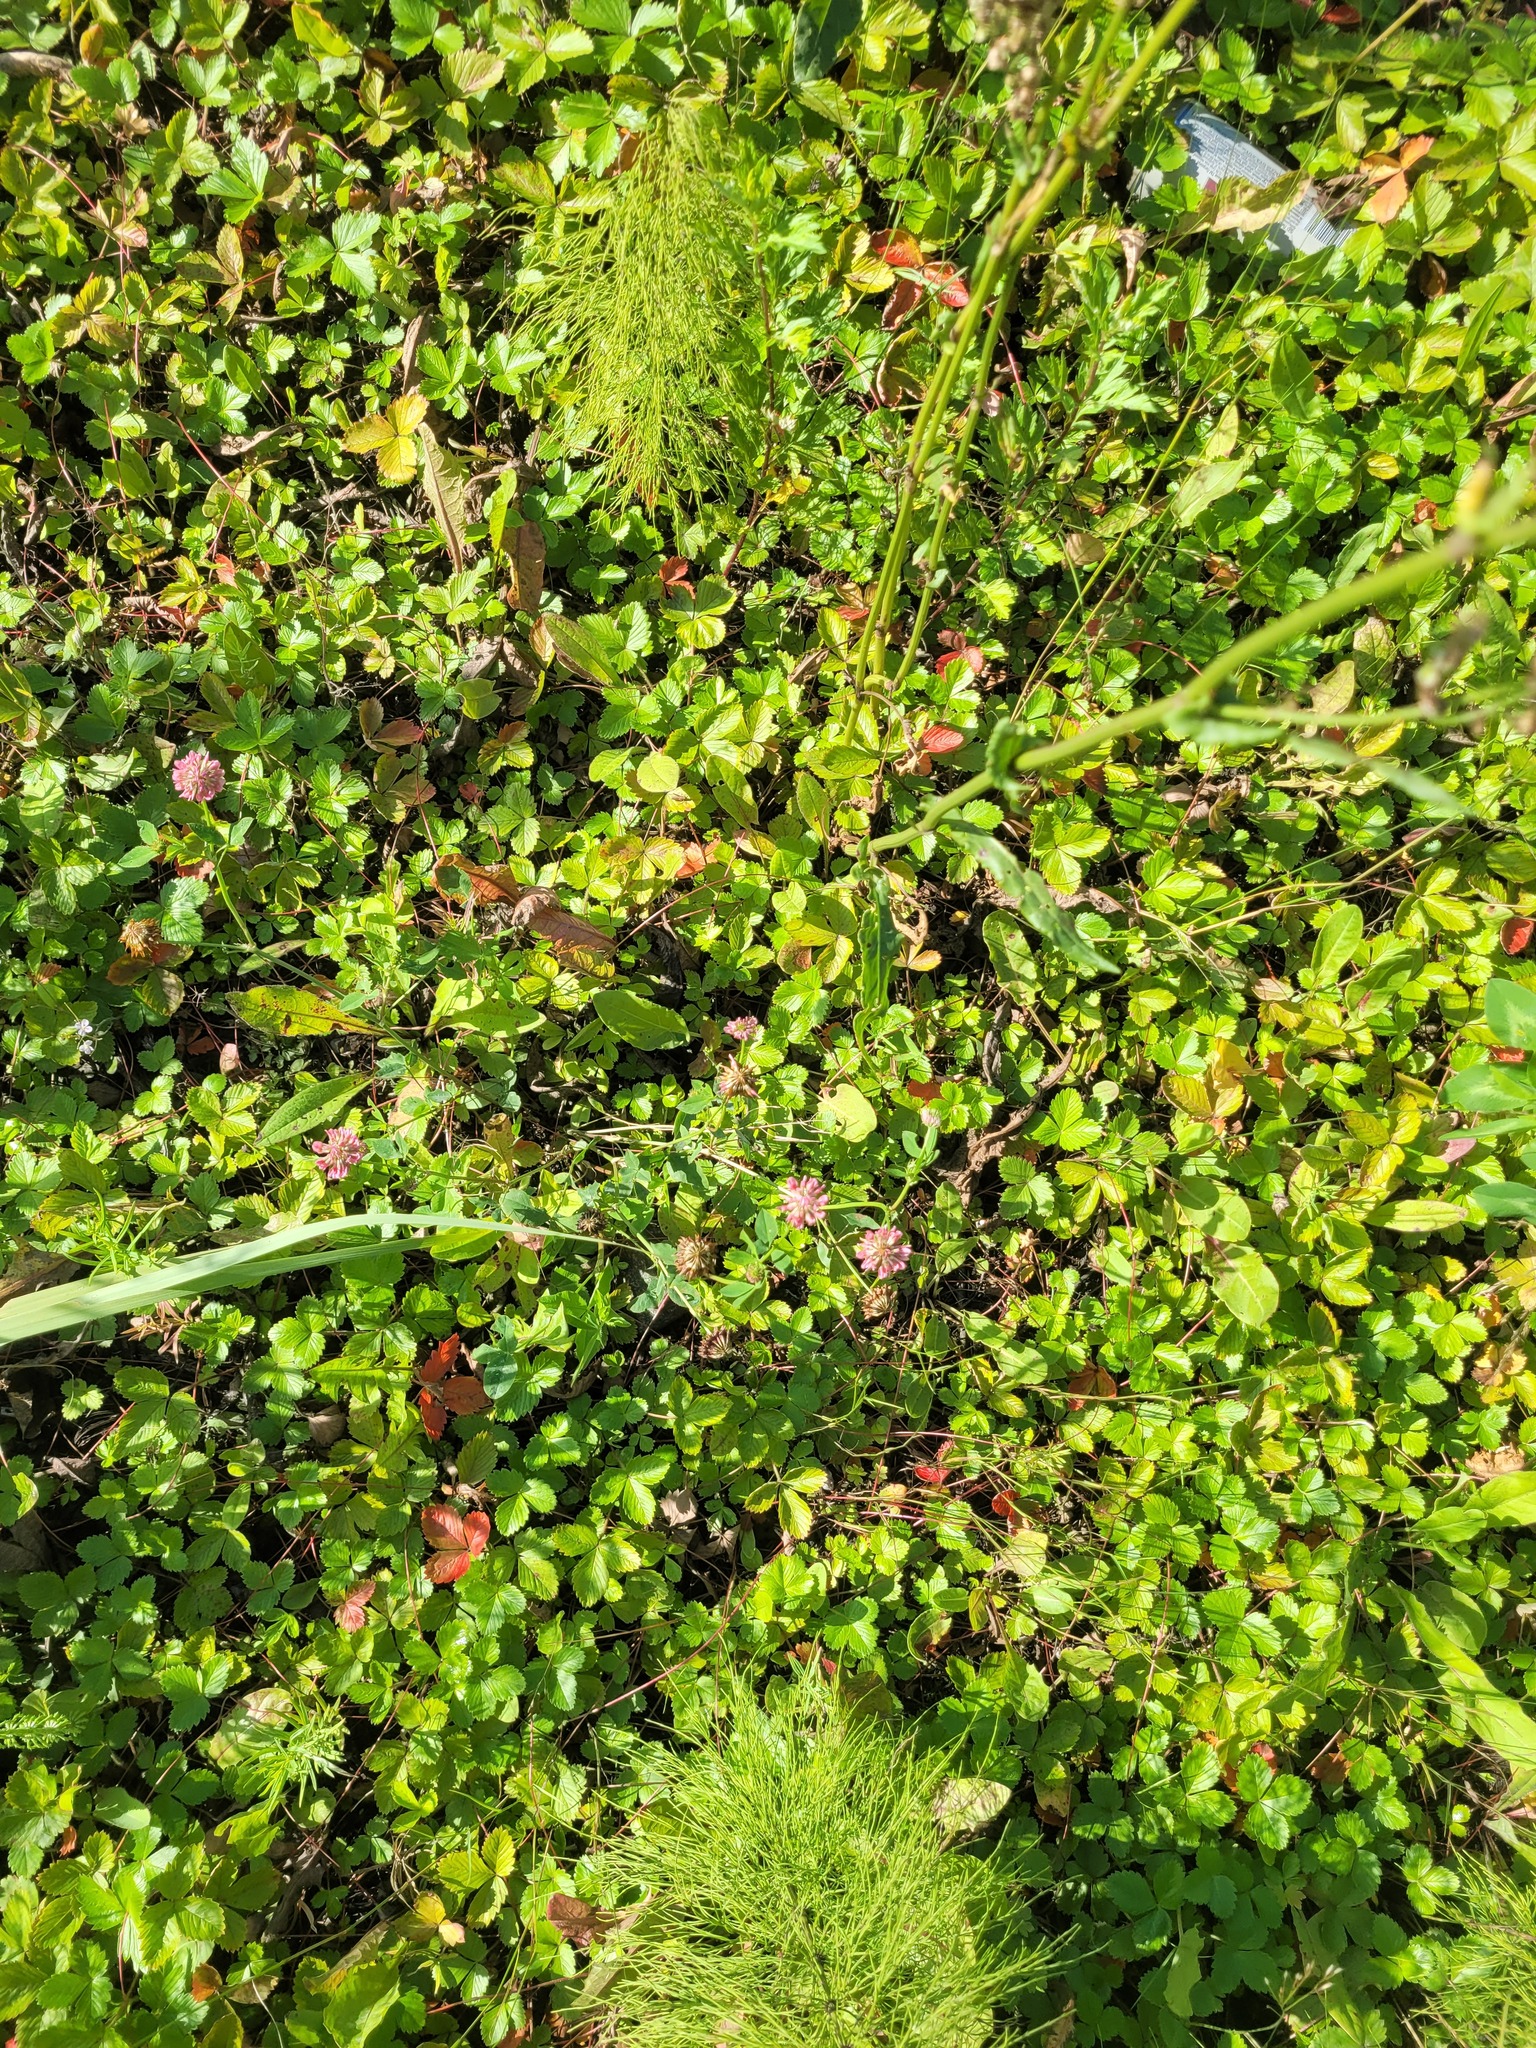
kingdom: Plantae
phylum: Tracheophyta
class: Magnoliopsida
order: Fabales
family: Fabaceae
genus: Trifolium
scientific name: Trifolium hybridum
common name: Alsike clover
